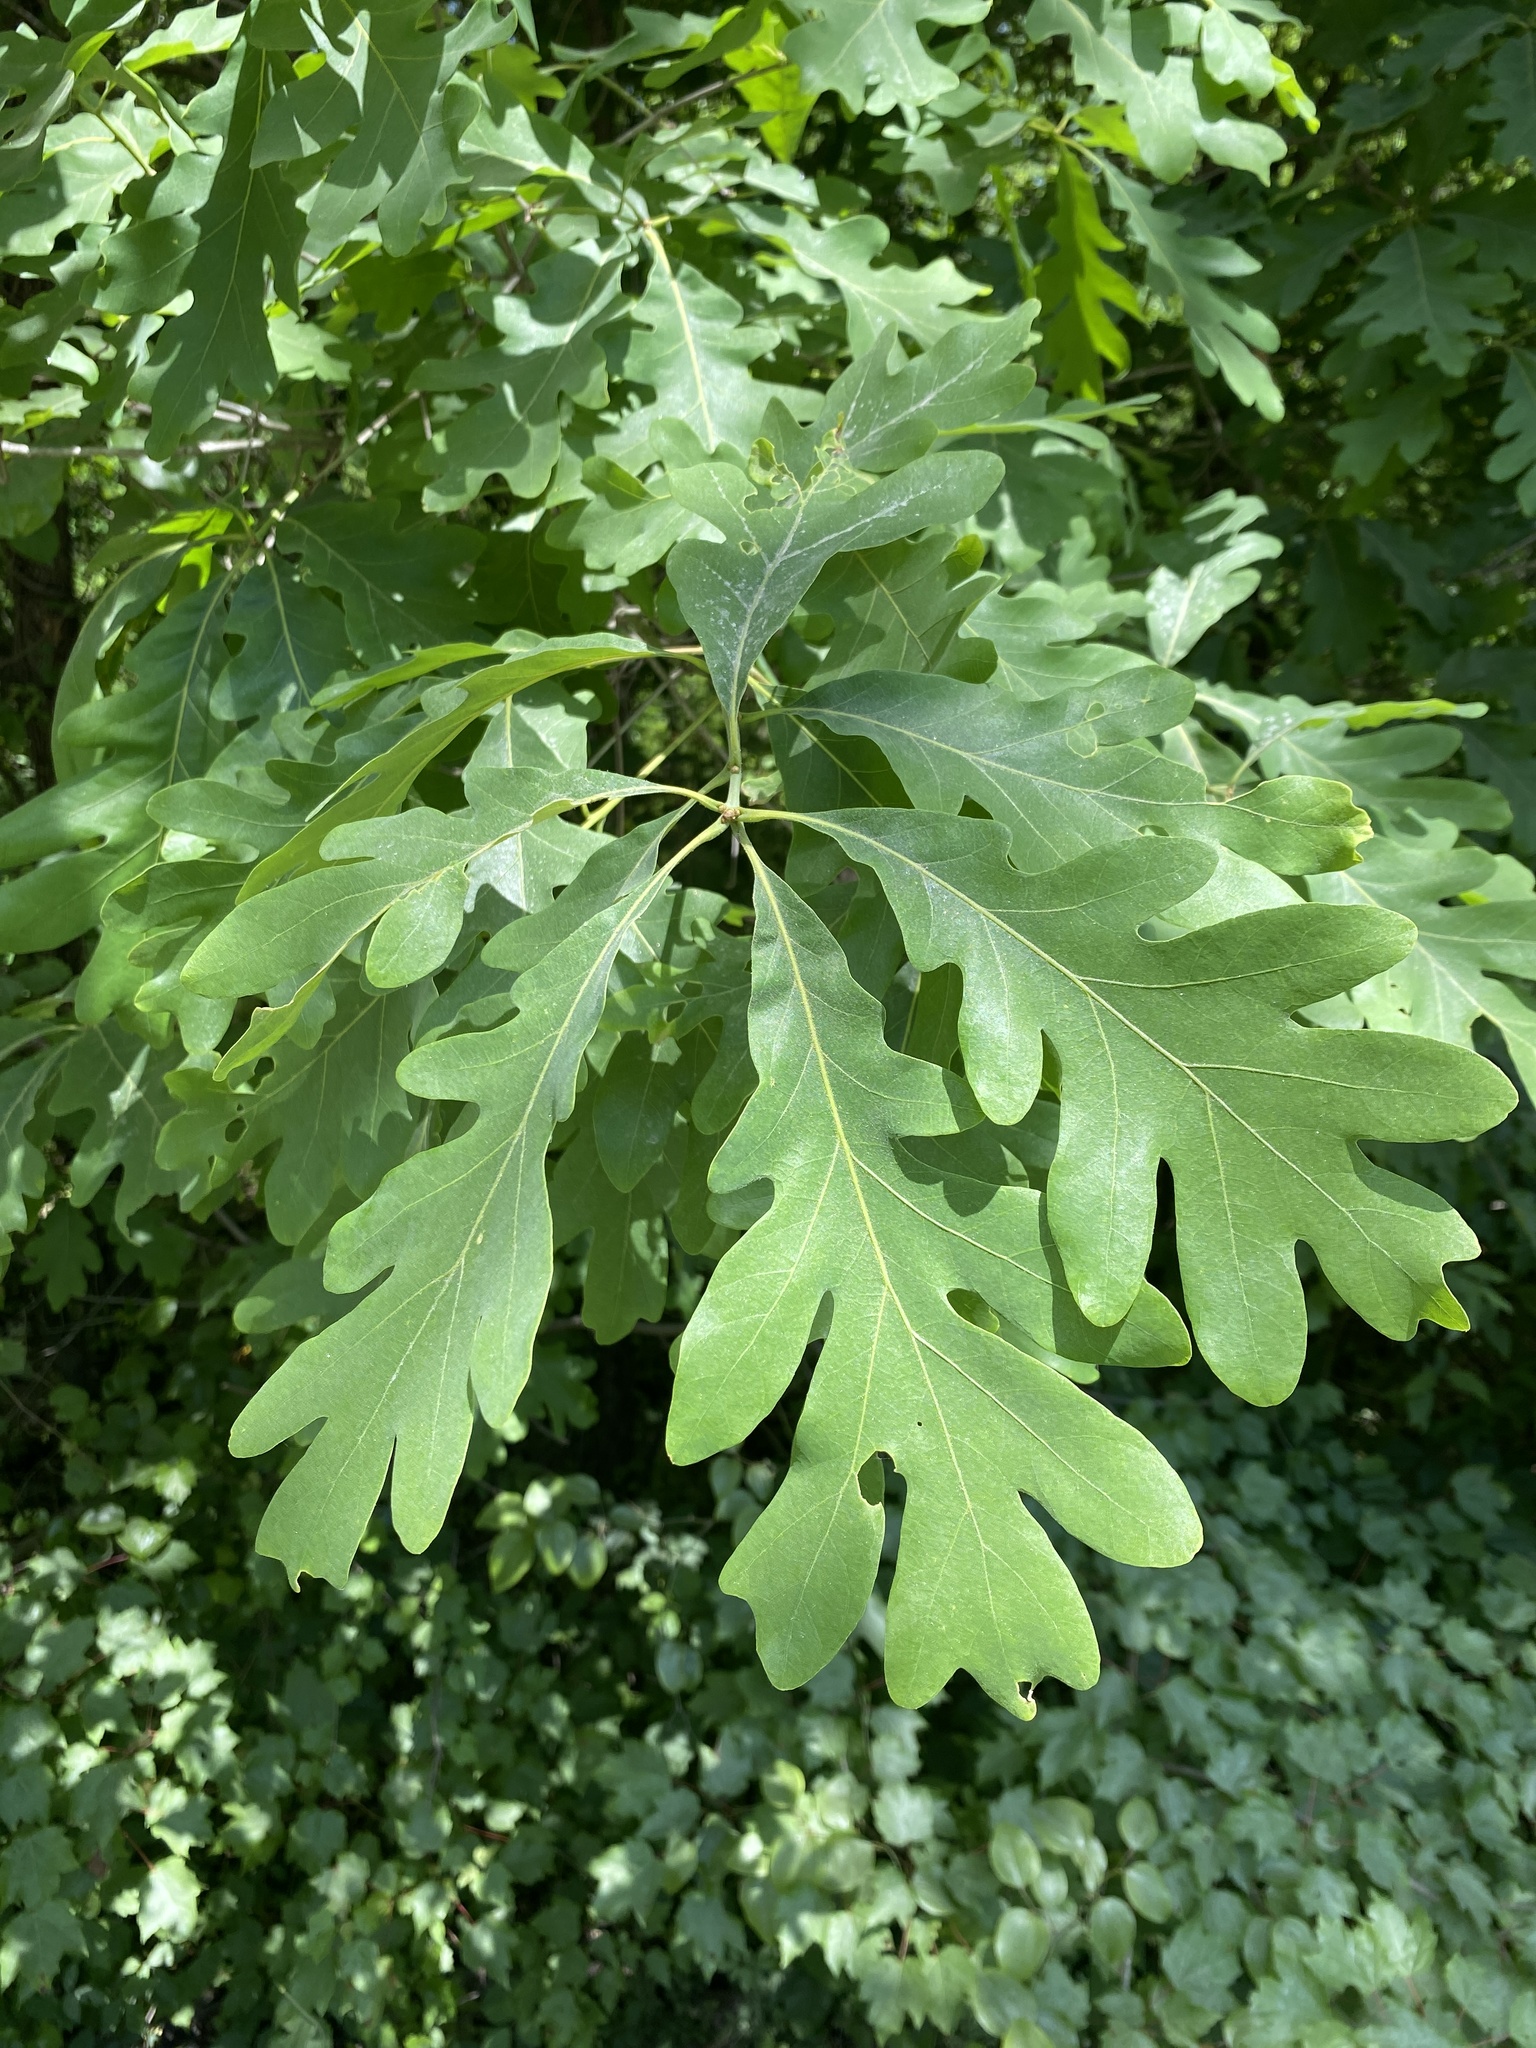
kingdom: Plantae
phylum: Tracheophyta
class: Magnoliopsida
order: Fagales
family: Fagaceae
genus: Quercus
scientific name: Quercus alba
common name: White oak
